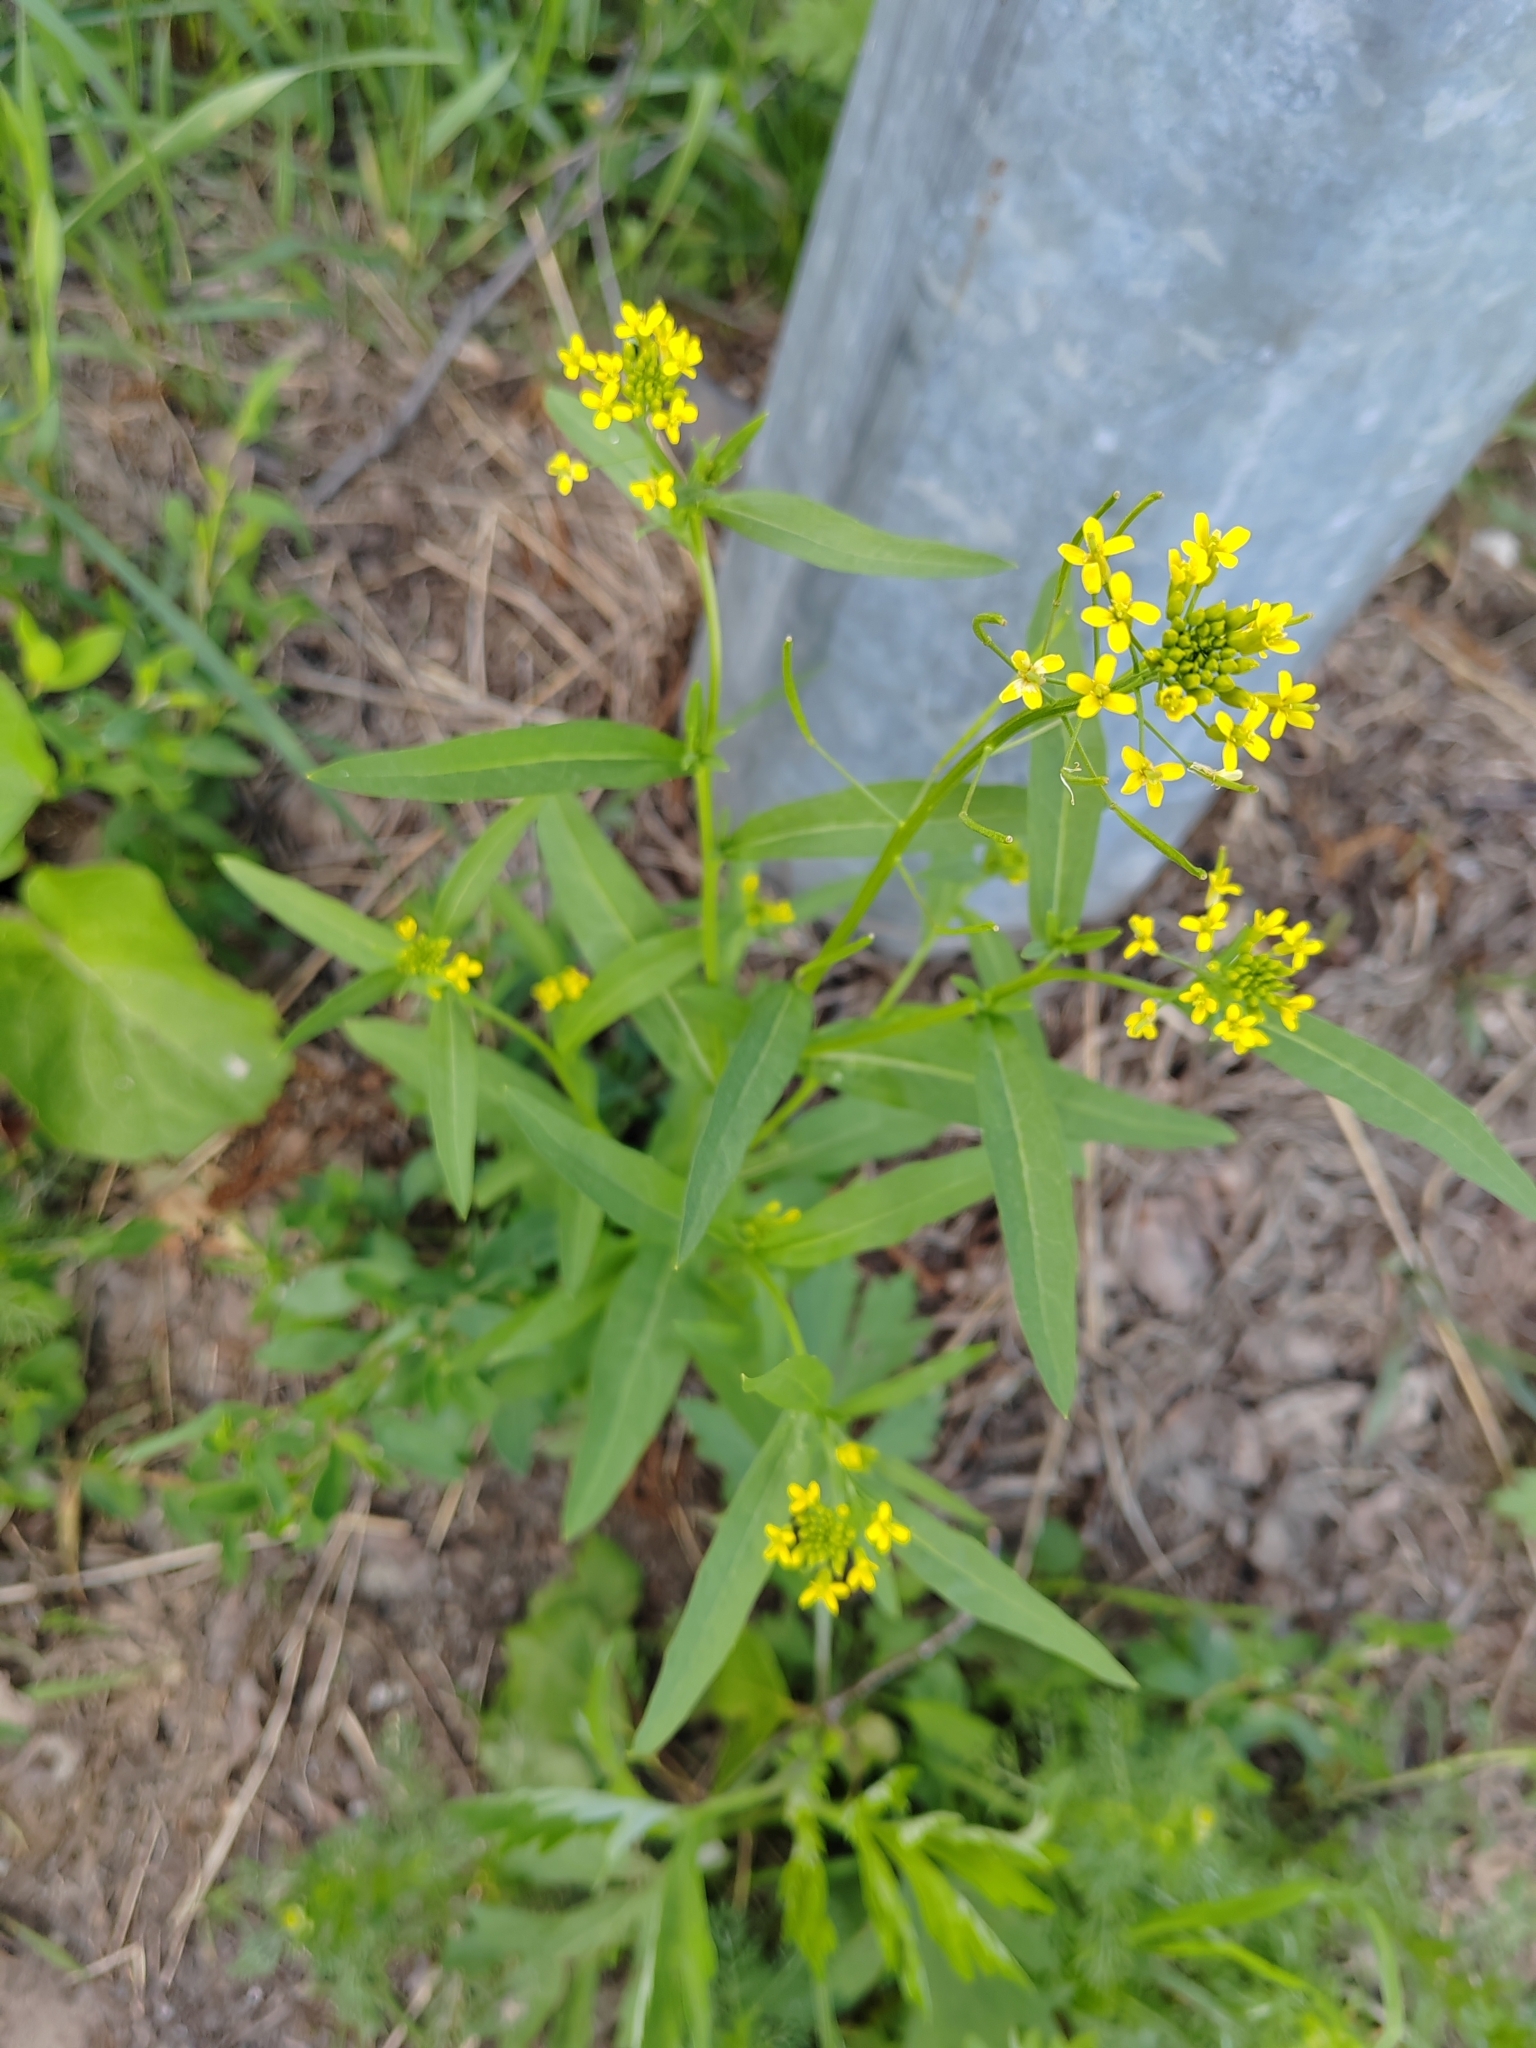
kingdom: Plantae
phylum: Tracheophyta
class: Magnoliopsida
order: Brassicales
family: Brassicaceae
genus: Erysimum
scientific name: Erysimum cheiranthoides
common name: Treacle mustard
